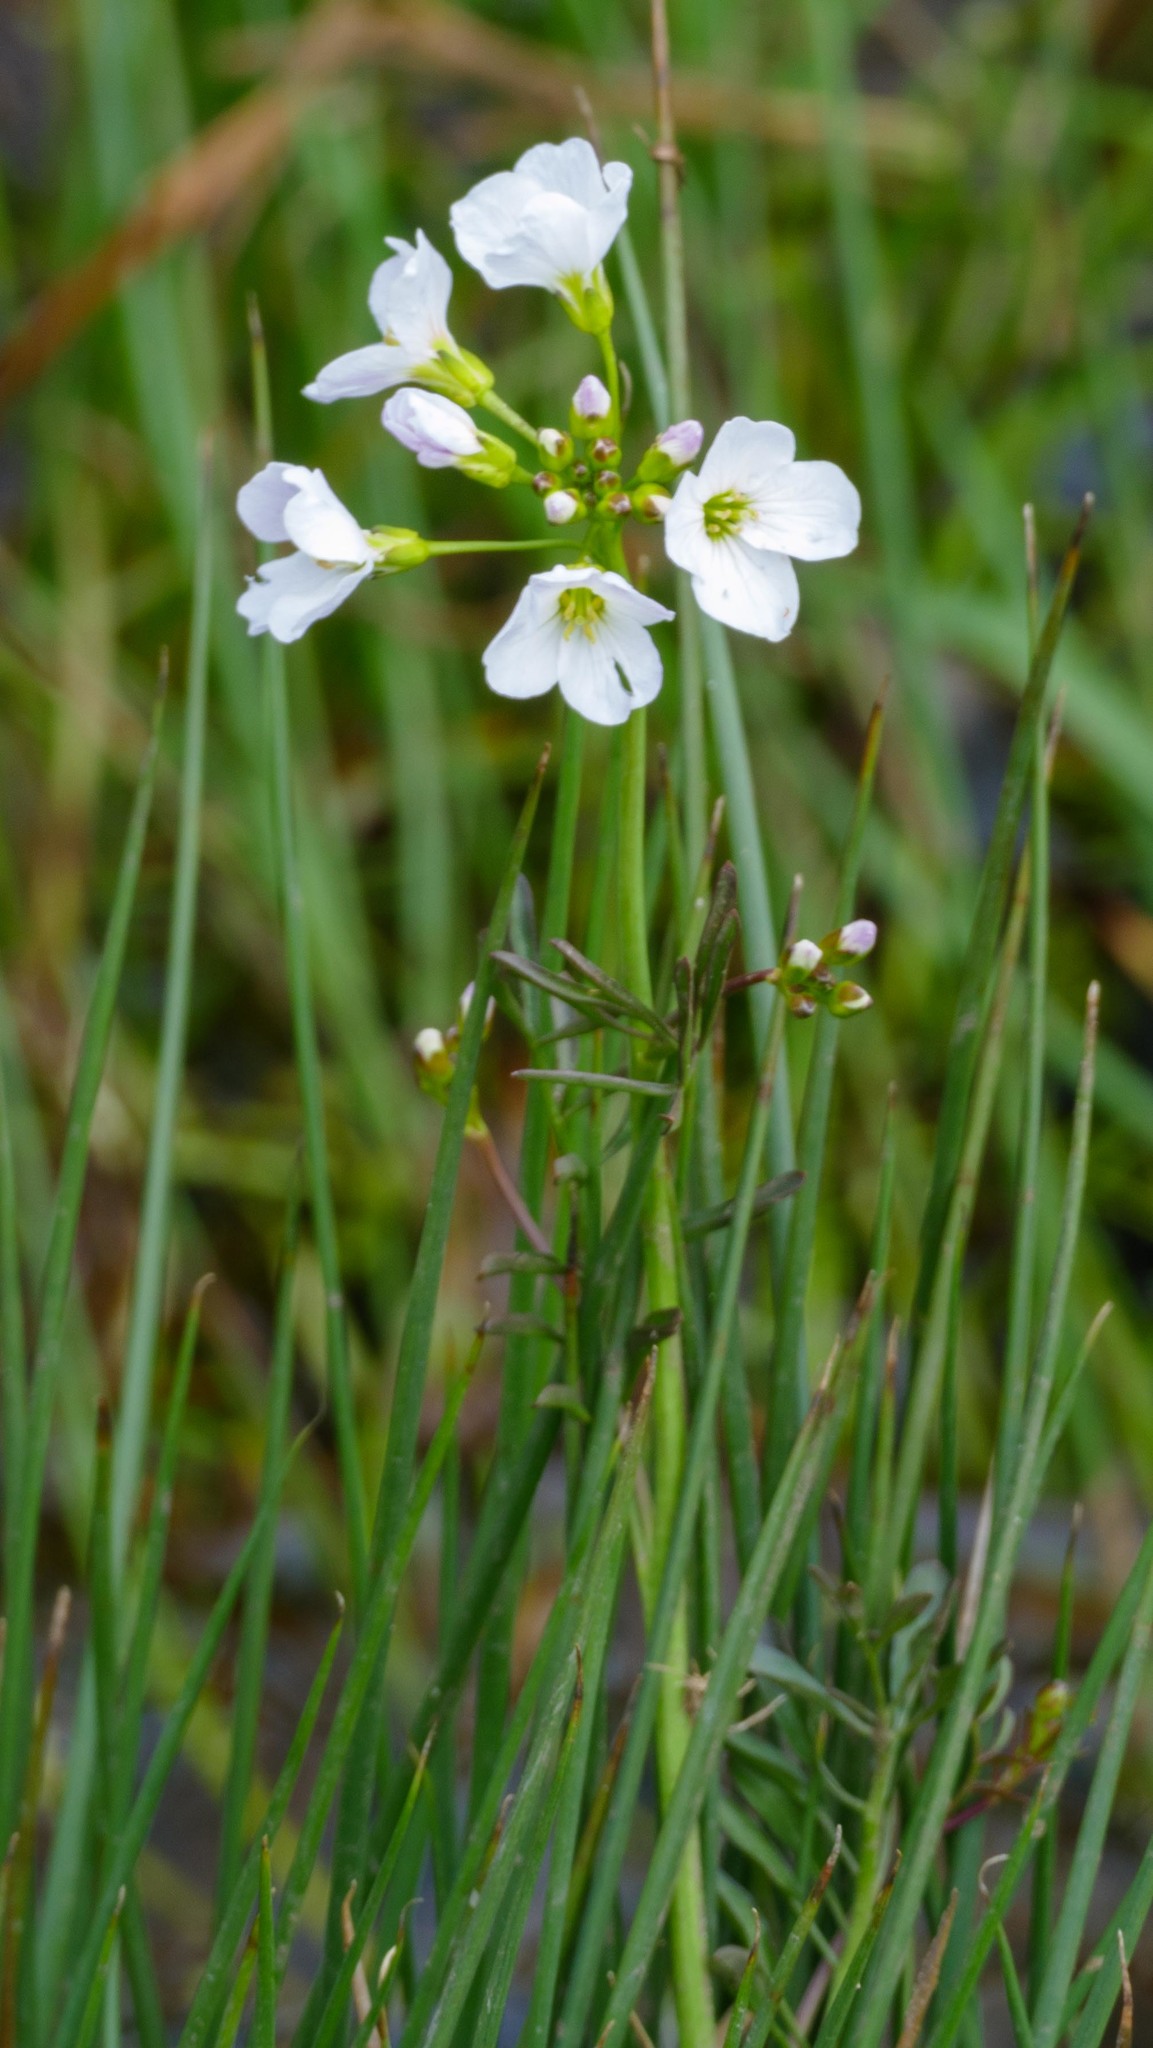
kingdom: Plantae
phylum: Tracheophyta
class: Magnoliopsida
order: Brassicales
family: Brassicaceae
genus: Cardamine
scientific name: Cardamine pratensis
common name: Cuckoo flower
